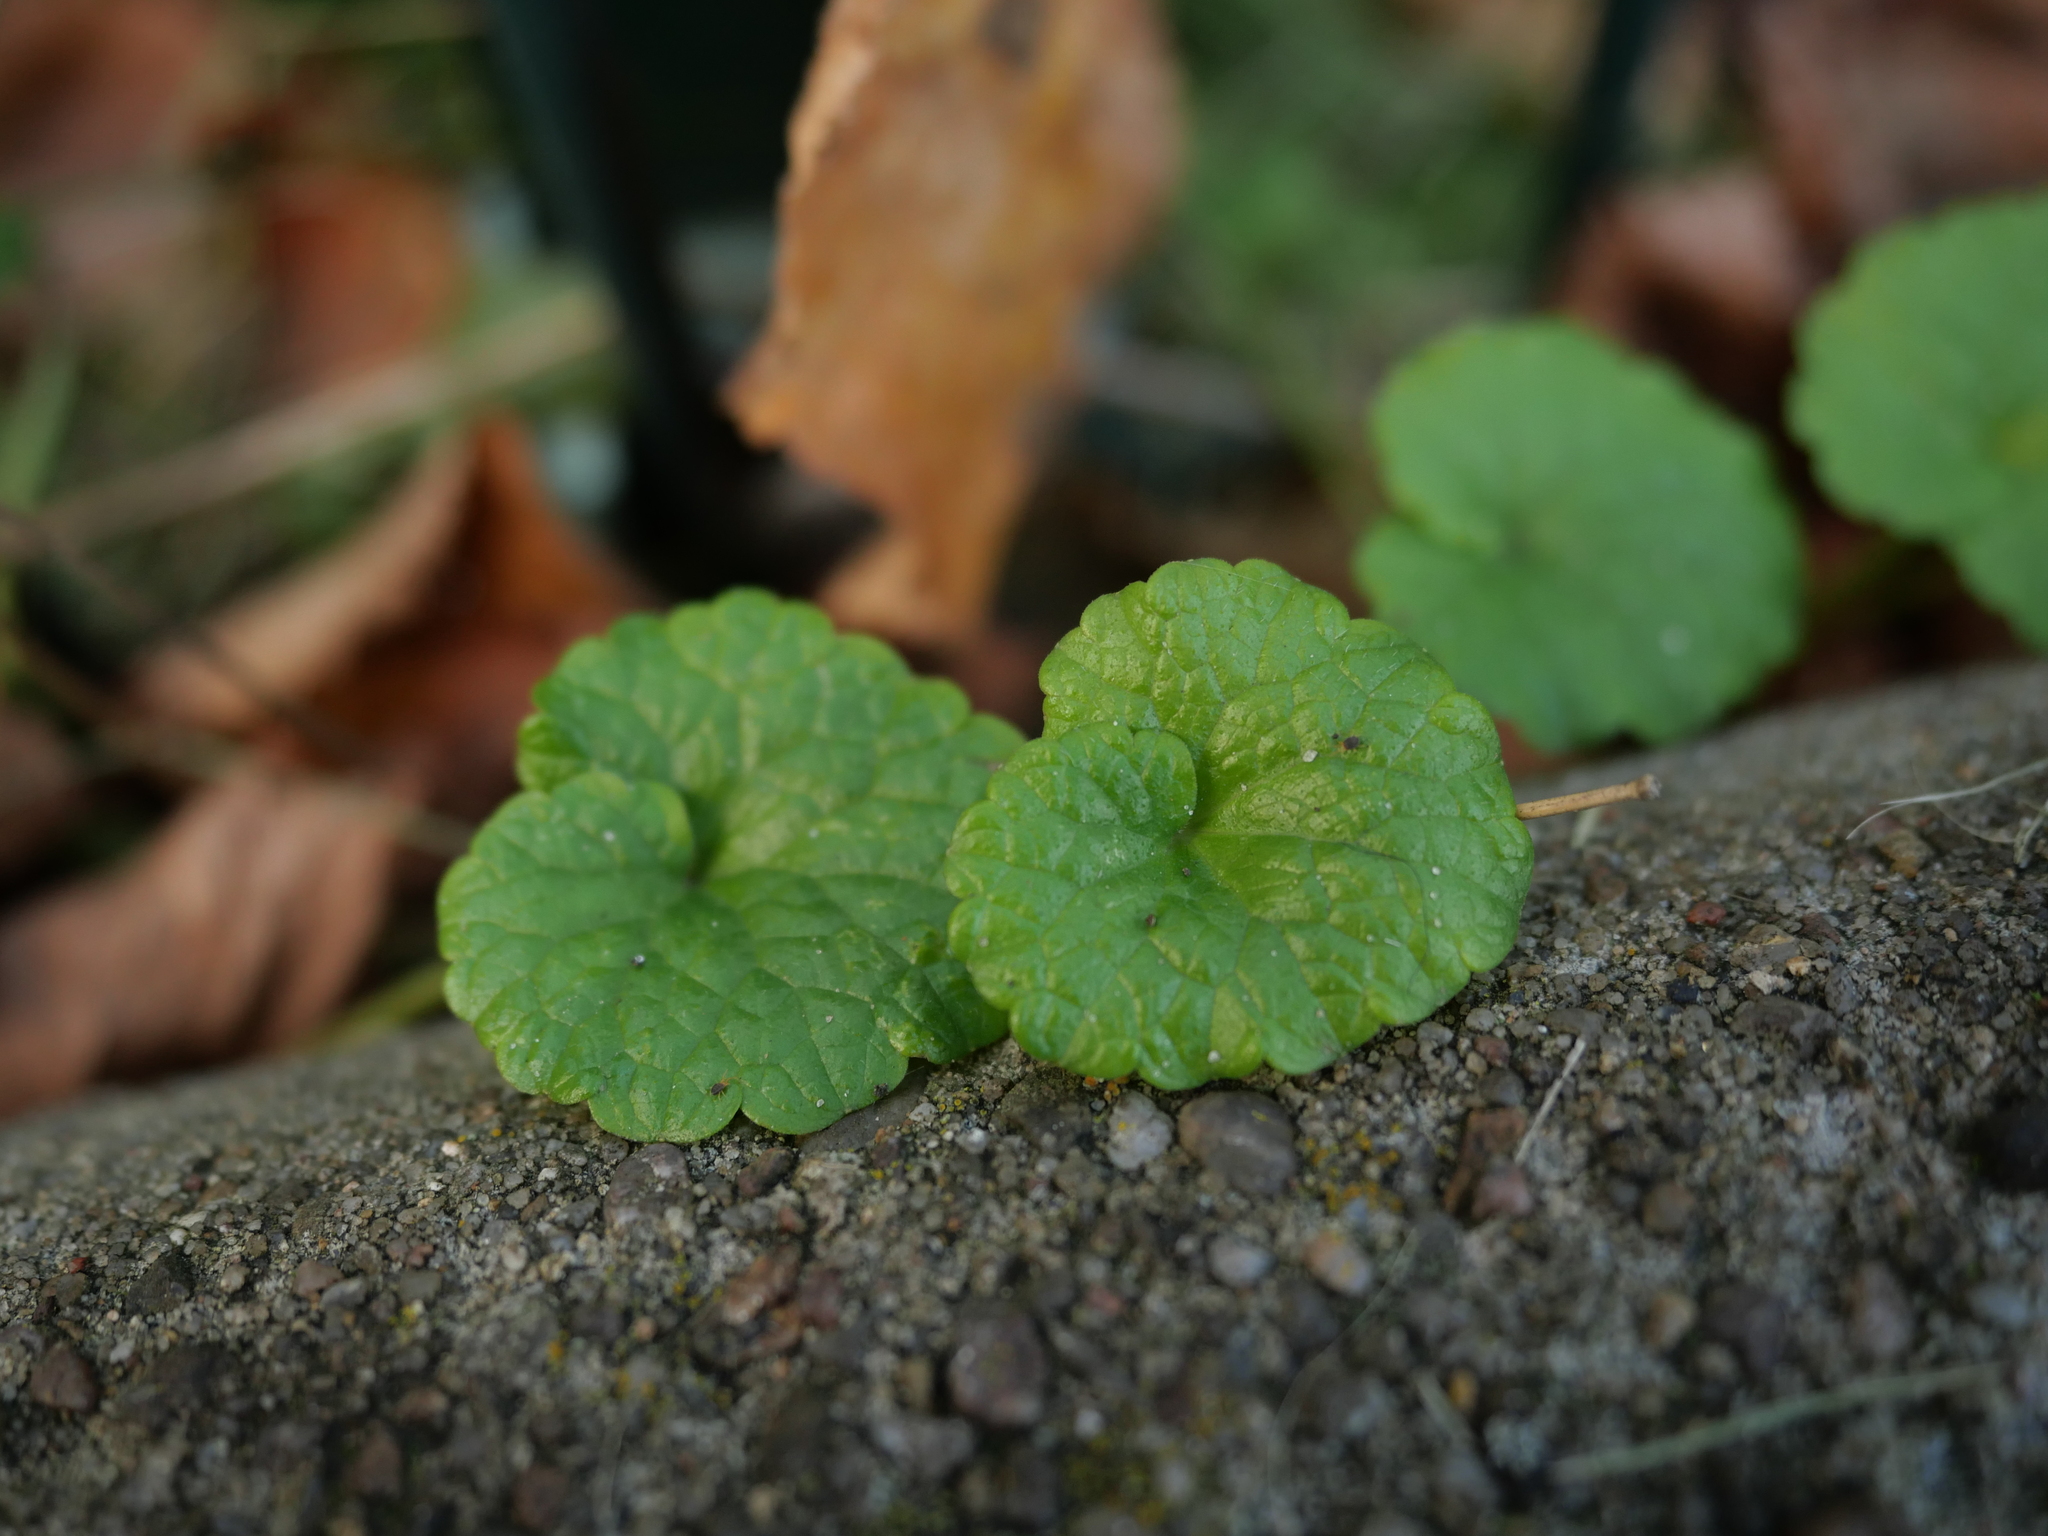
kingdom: Plantae
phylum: Tracheophyta
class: Magnoliopsida
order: Lamiales
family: Lamiaceae
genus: Glechoma
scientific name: Glechoma hederacea
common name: Ground ivy
